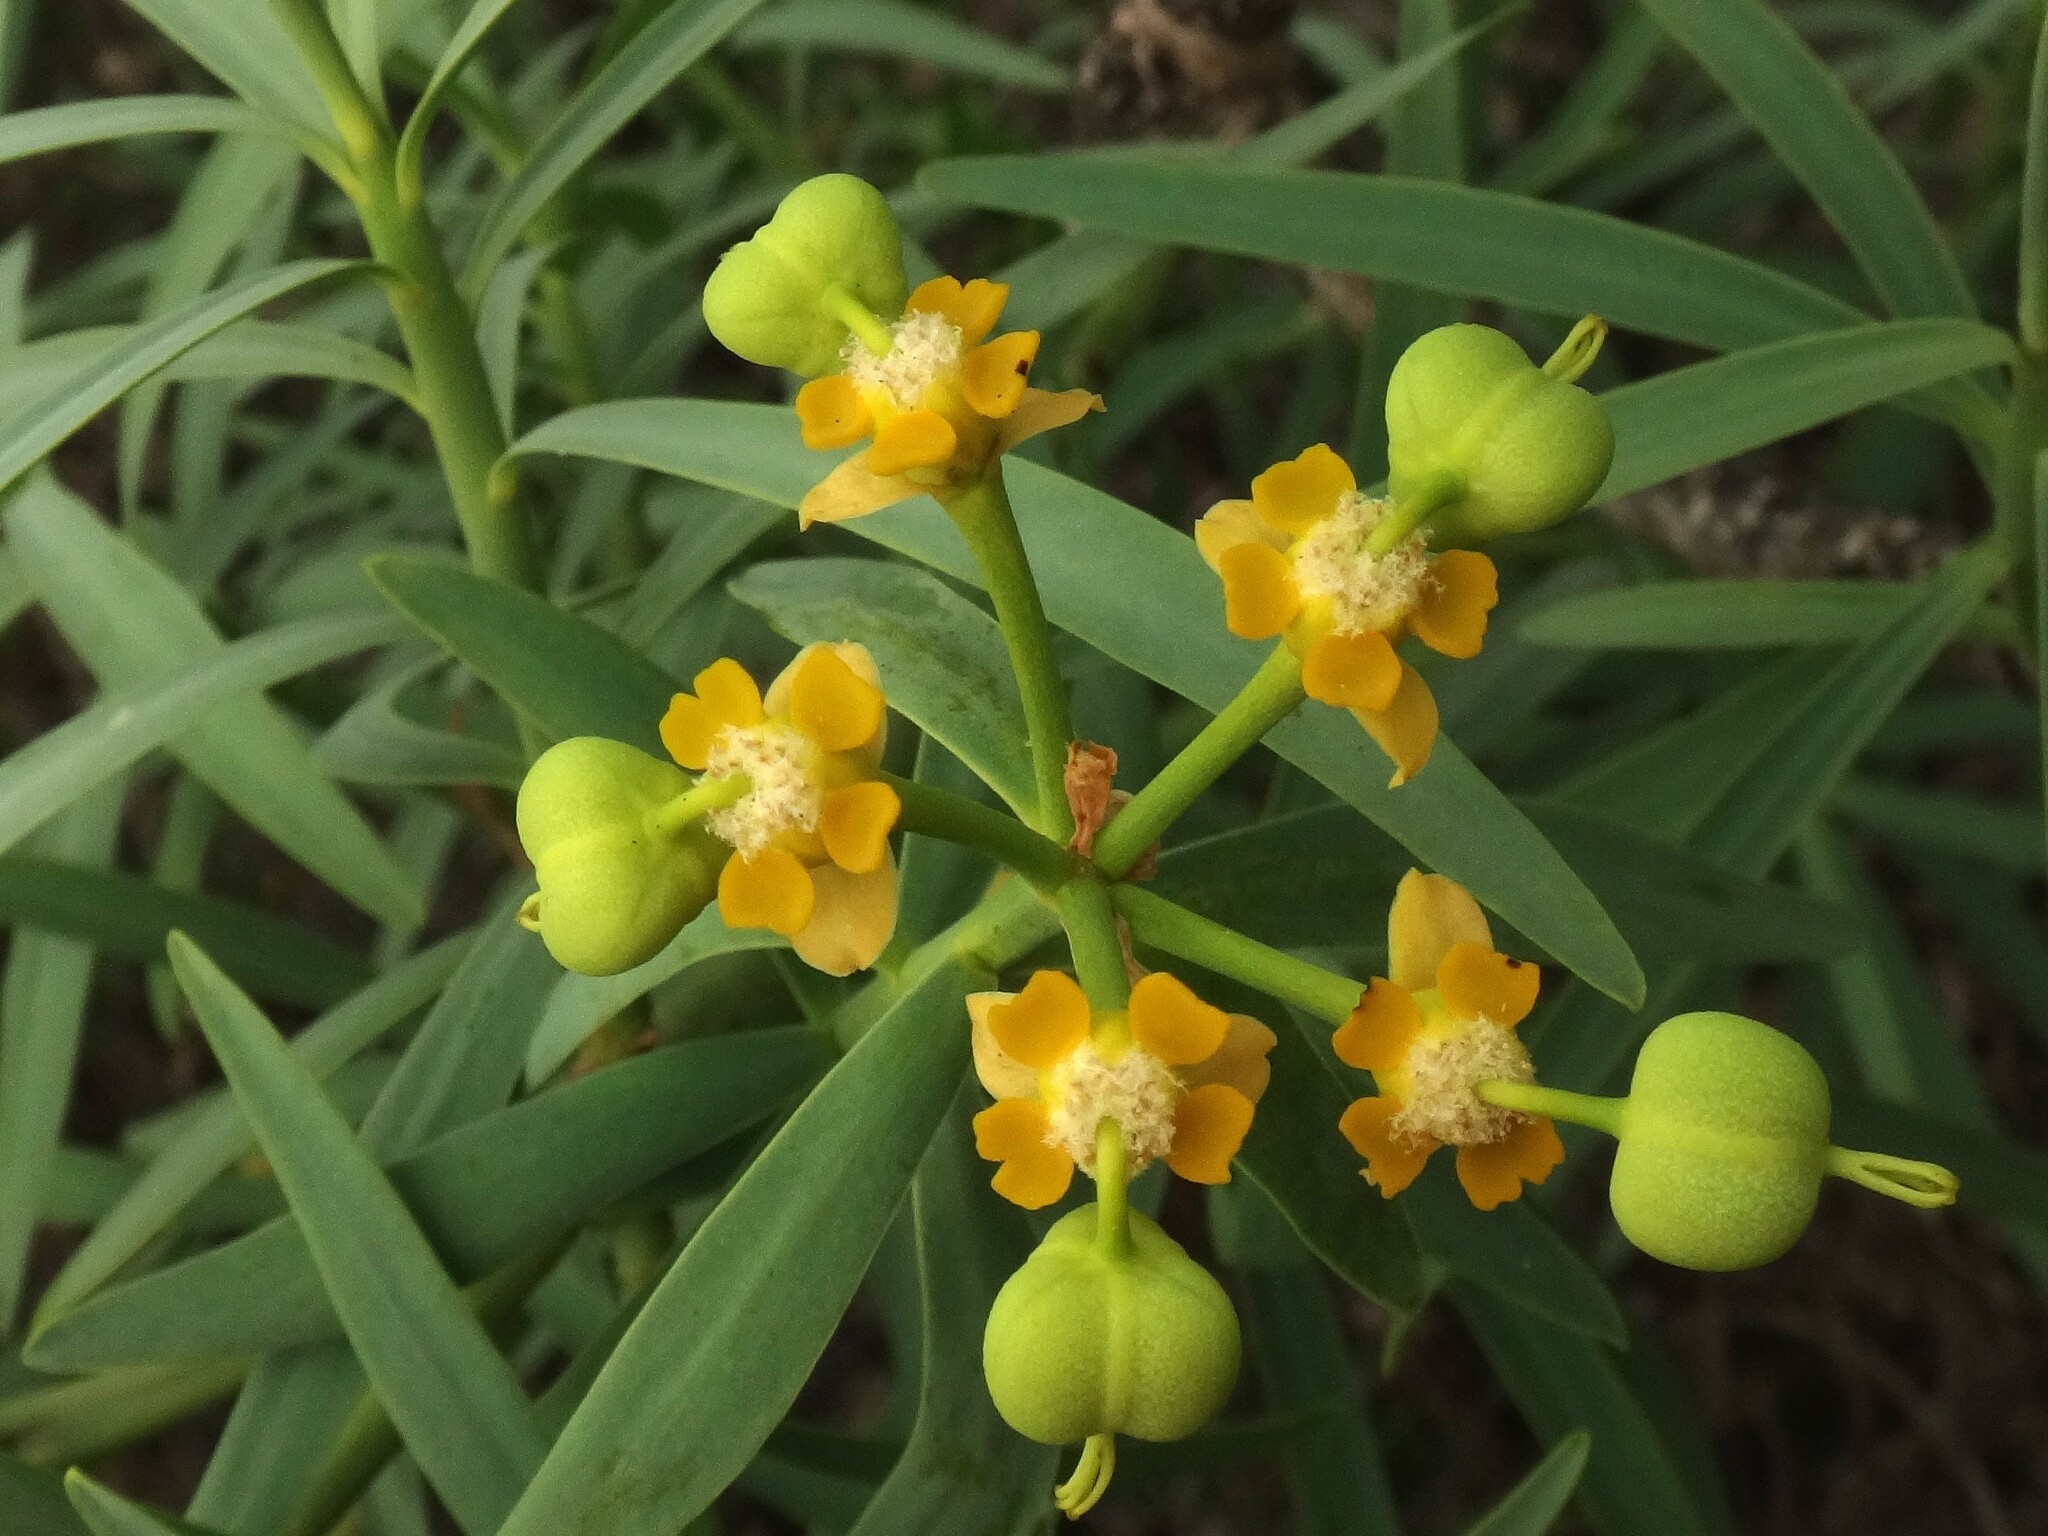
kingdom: Plantae
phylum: Tracheophyta
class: Magnoliopsida
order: Malpighiales
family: Euphorbiaceae
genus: Euphorbia
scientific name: Euphorbia lamarckii
